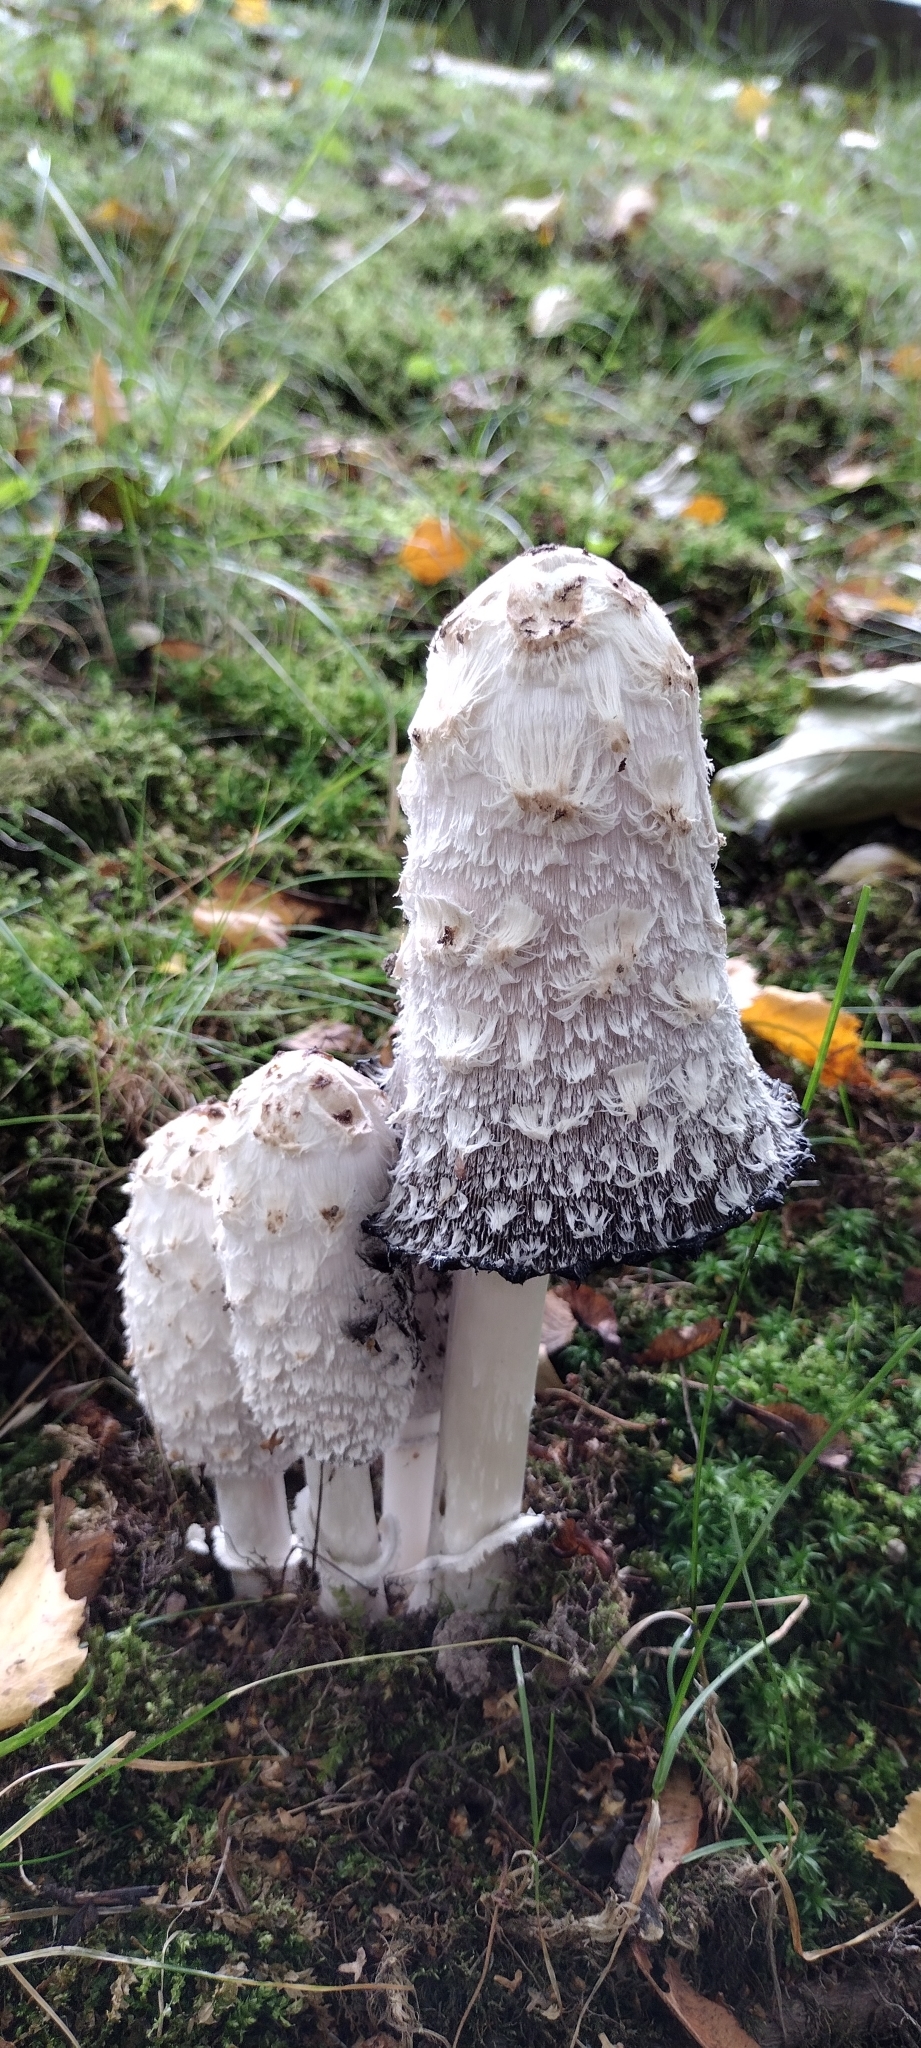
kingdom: Fungi
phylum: Basidiomycota
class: Agaricomycetes
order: Agaricales
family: Agaricaceae
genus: Coprinus
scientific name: Coprinus comatus
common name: Lawyer's wig
